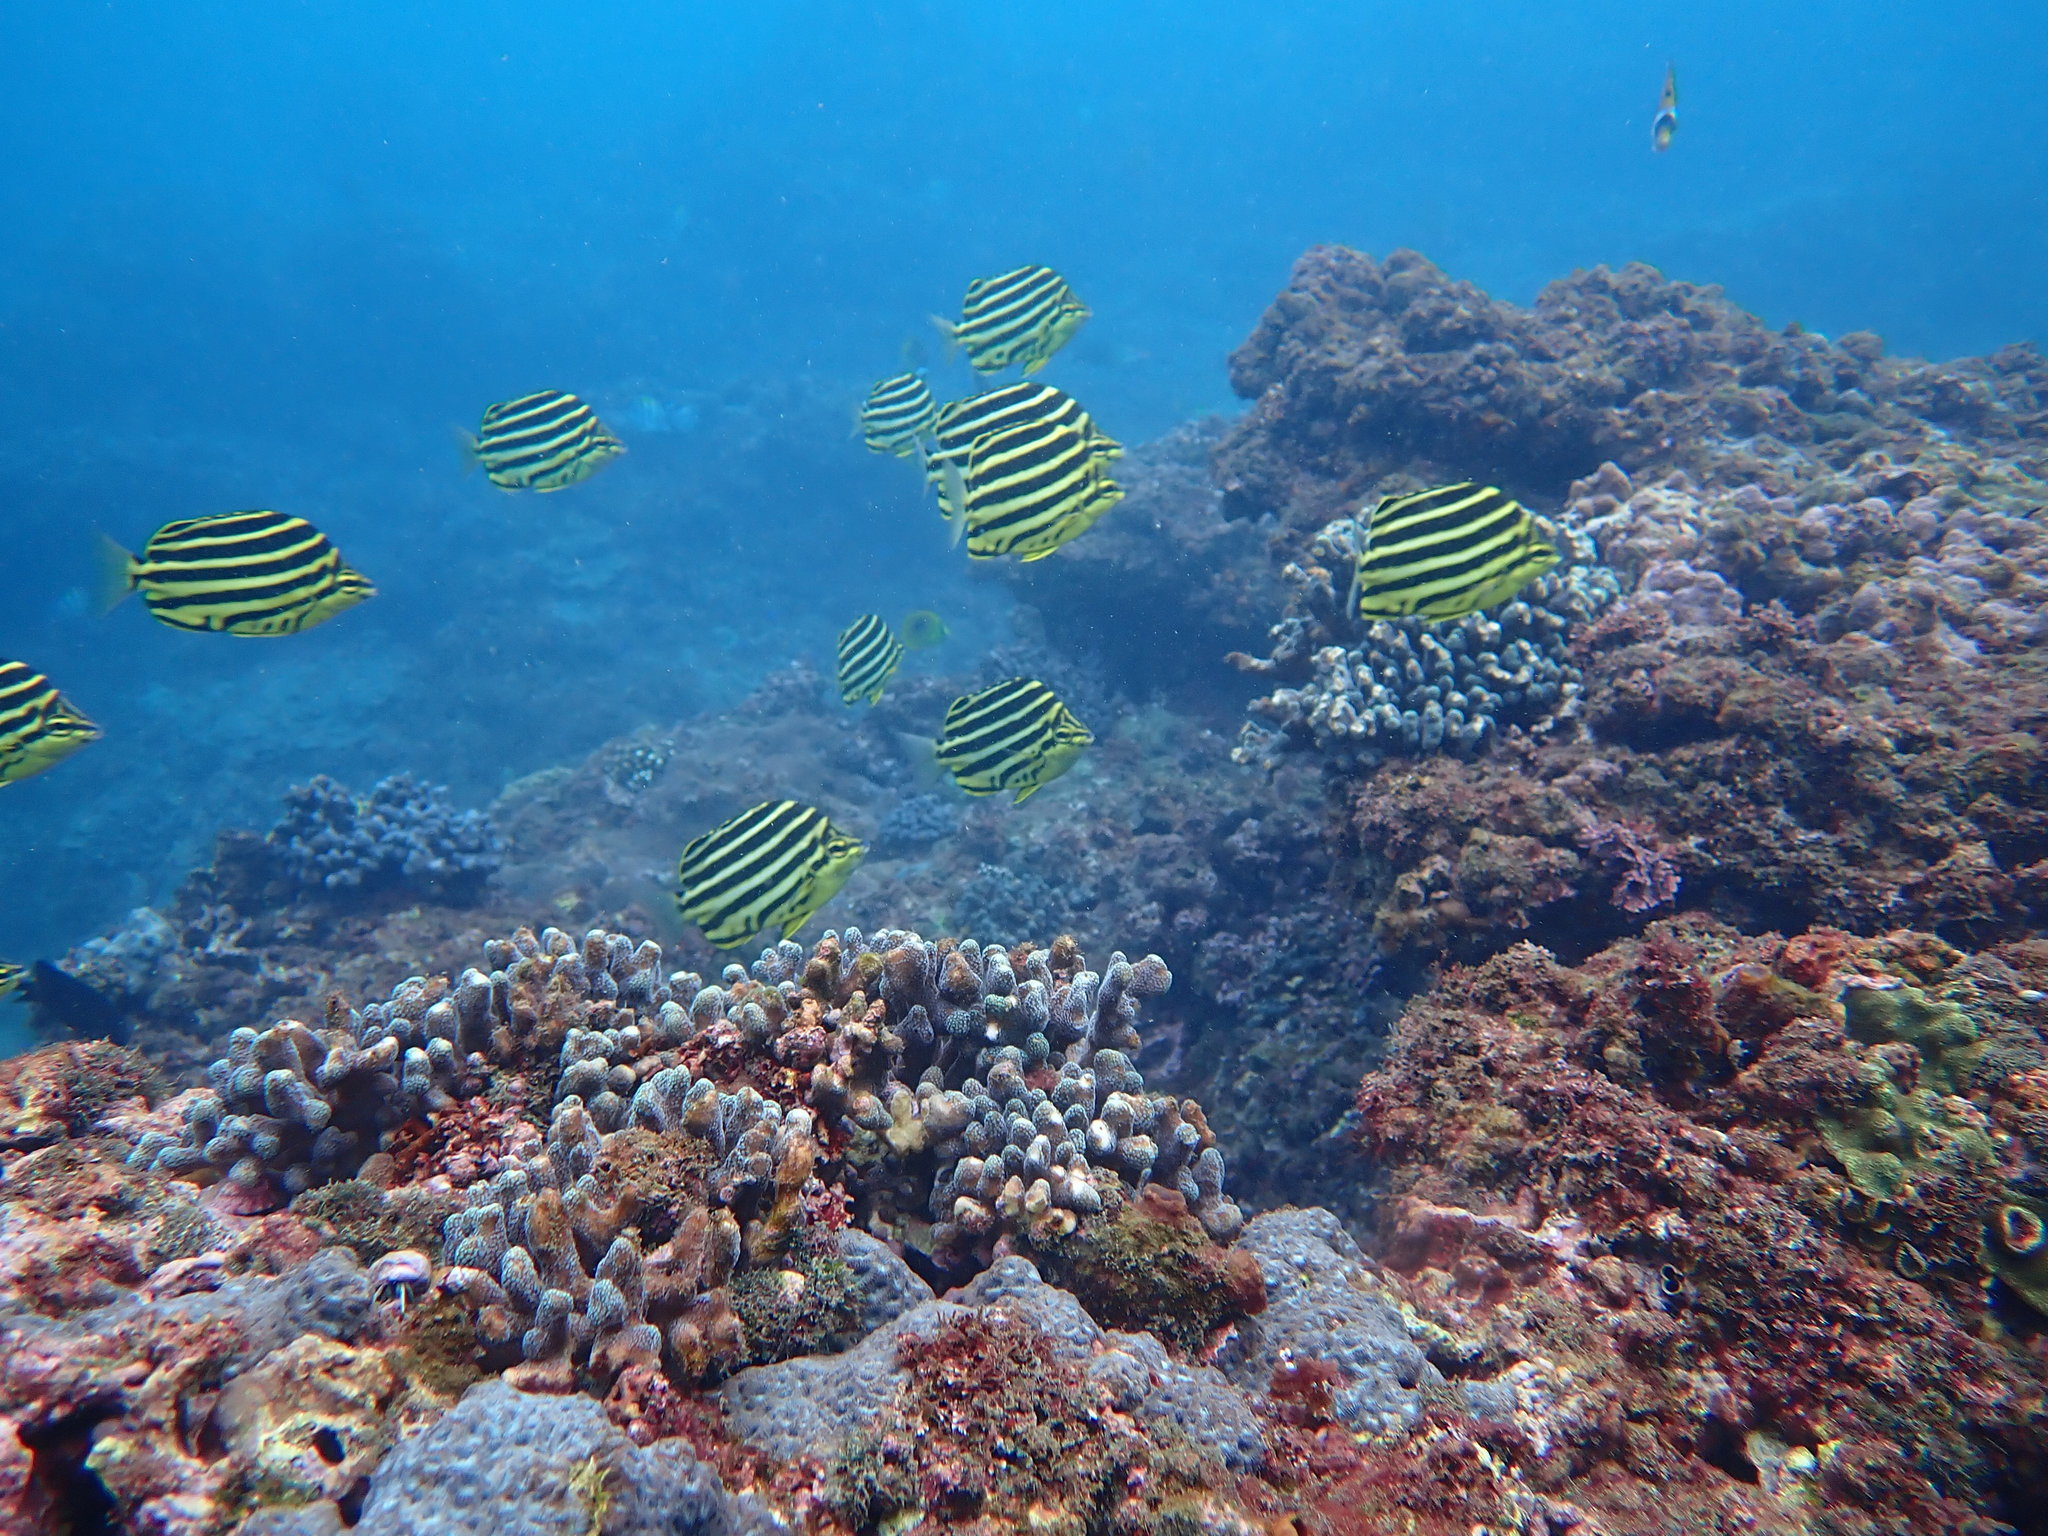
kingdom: Animalia
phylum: Chordata
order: Perciformes
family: Kyphosidae
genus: Microcanthus
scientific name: Microcanthus strigatus
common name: Stripey
